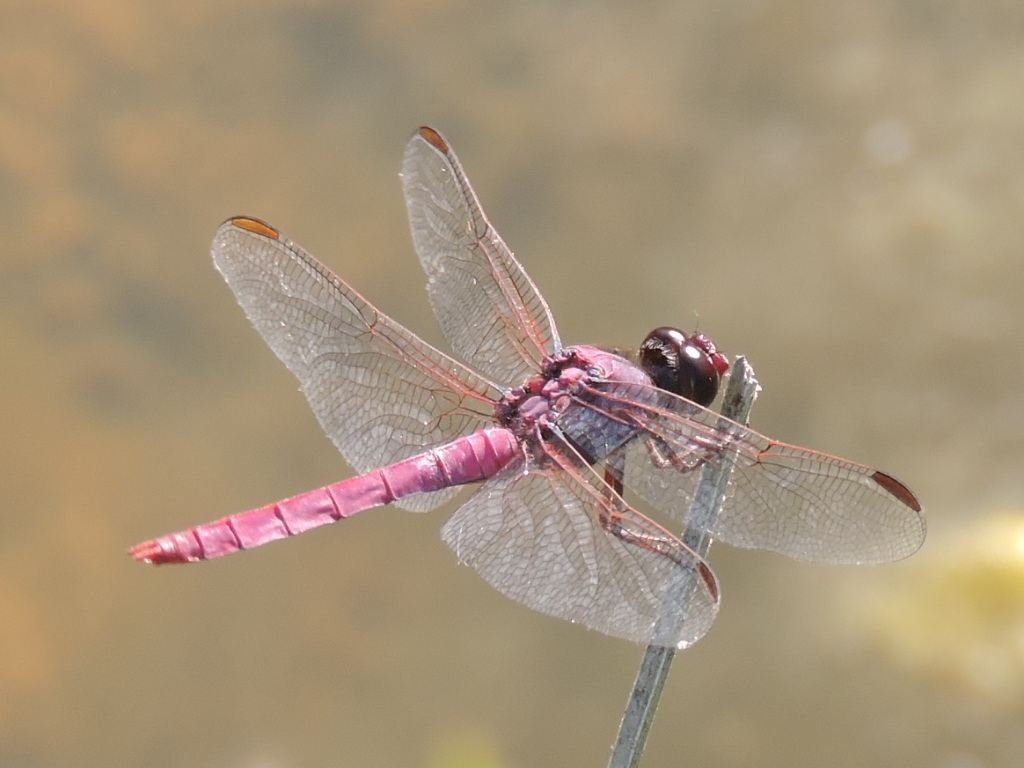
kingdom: Animalia
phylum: Arthropoda
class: Insecta
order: Odonata
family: Libellulidae
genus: Orthemis
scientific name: Orthemis ferruginea
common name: Roseate skimmer
